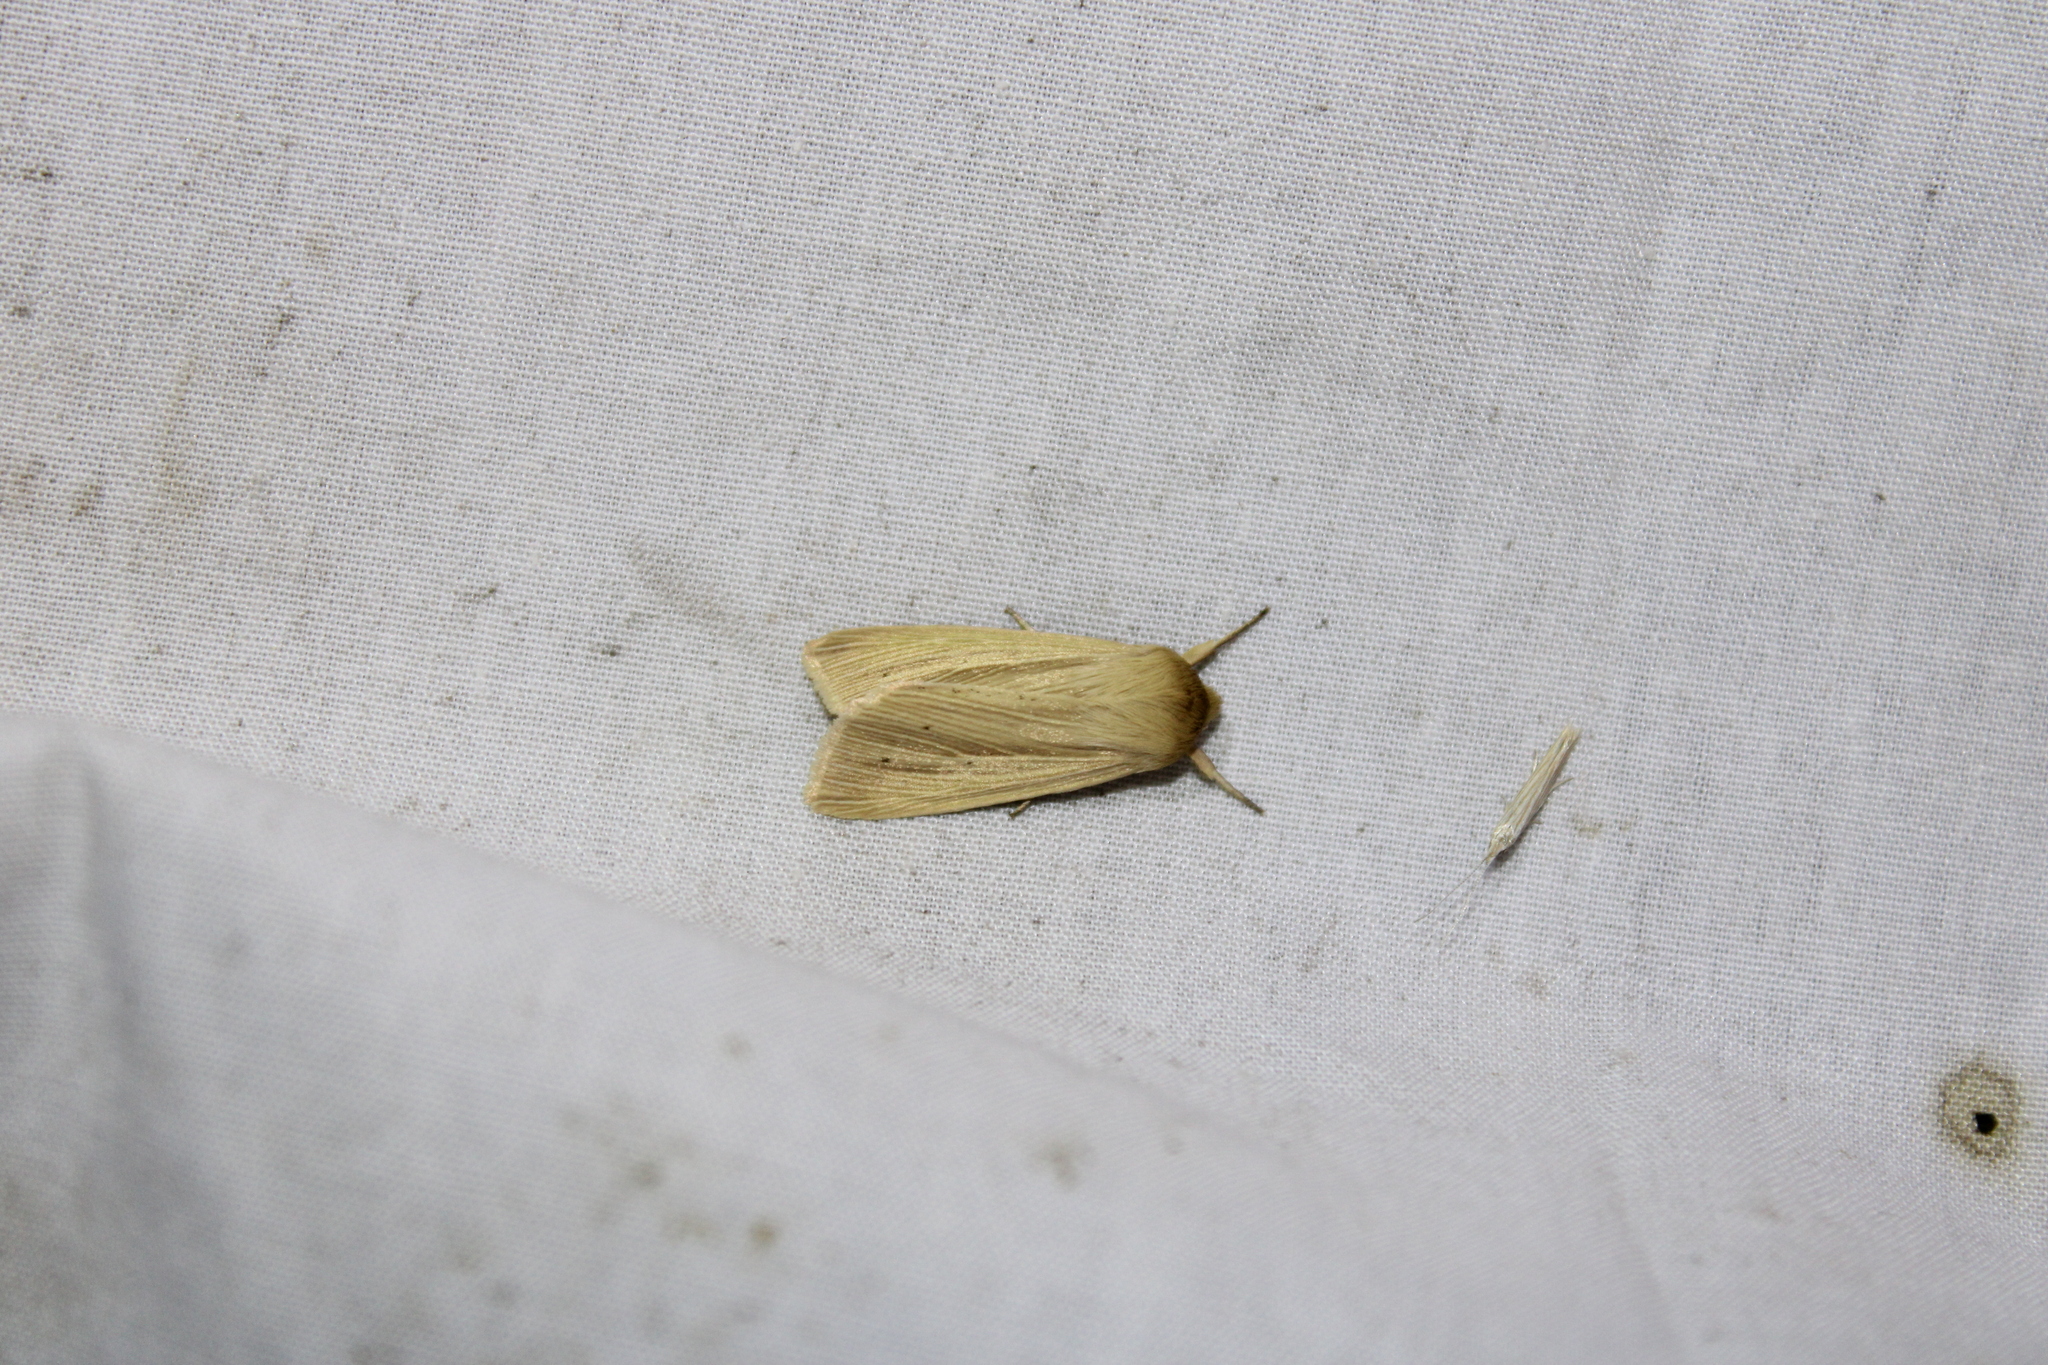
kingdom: Animalia
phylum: Arthropoda
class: Insecta
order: Lepidoptera
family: Noctuidae
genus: Mythimna
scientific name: Mythimna oxygala
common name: Lesser wainscot
